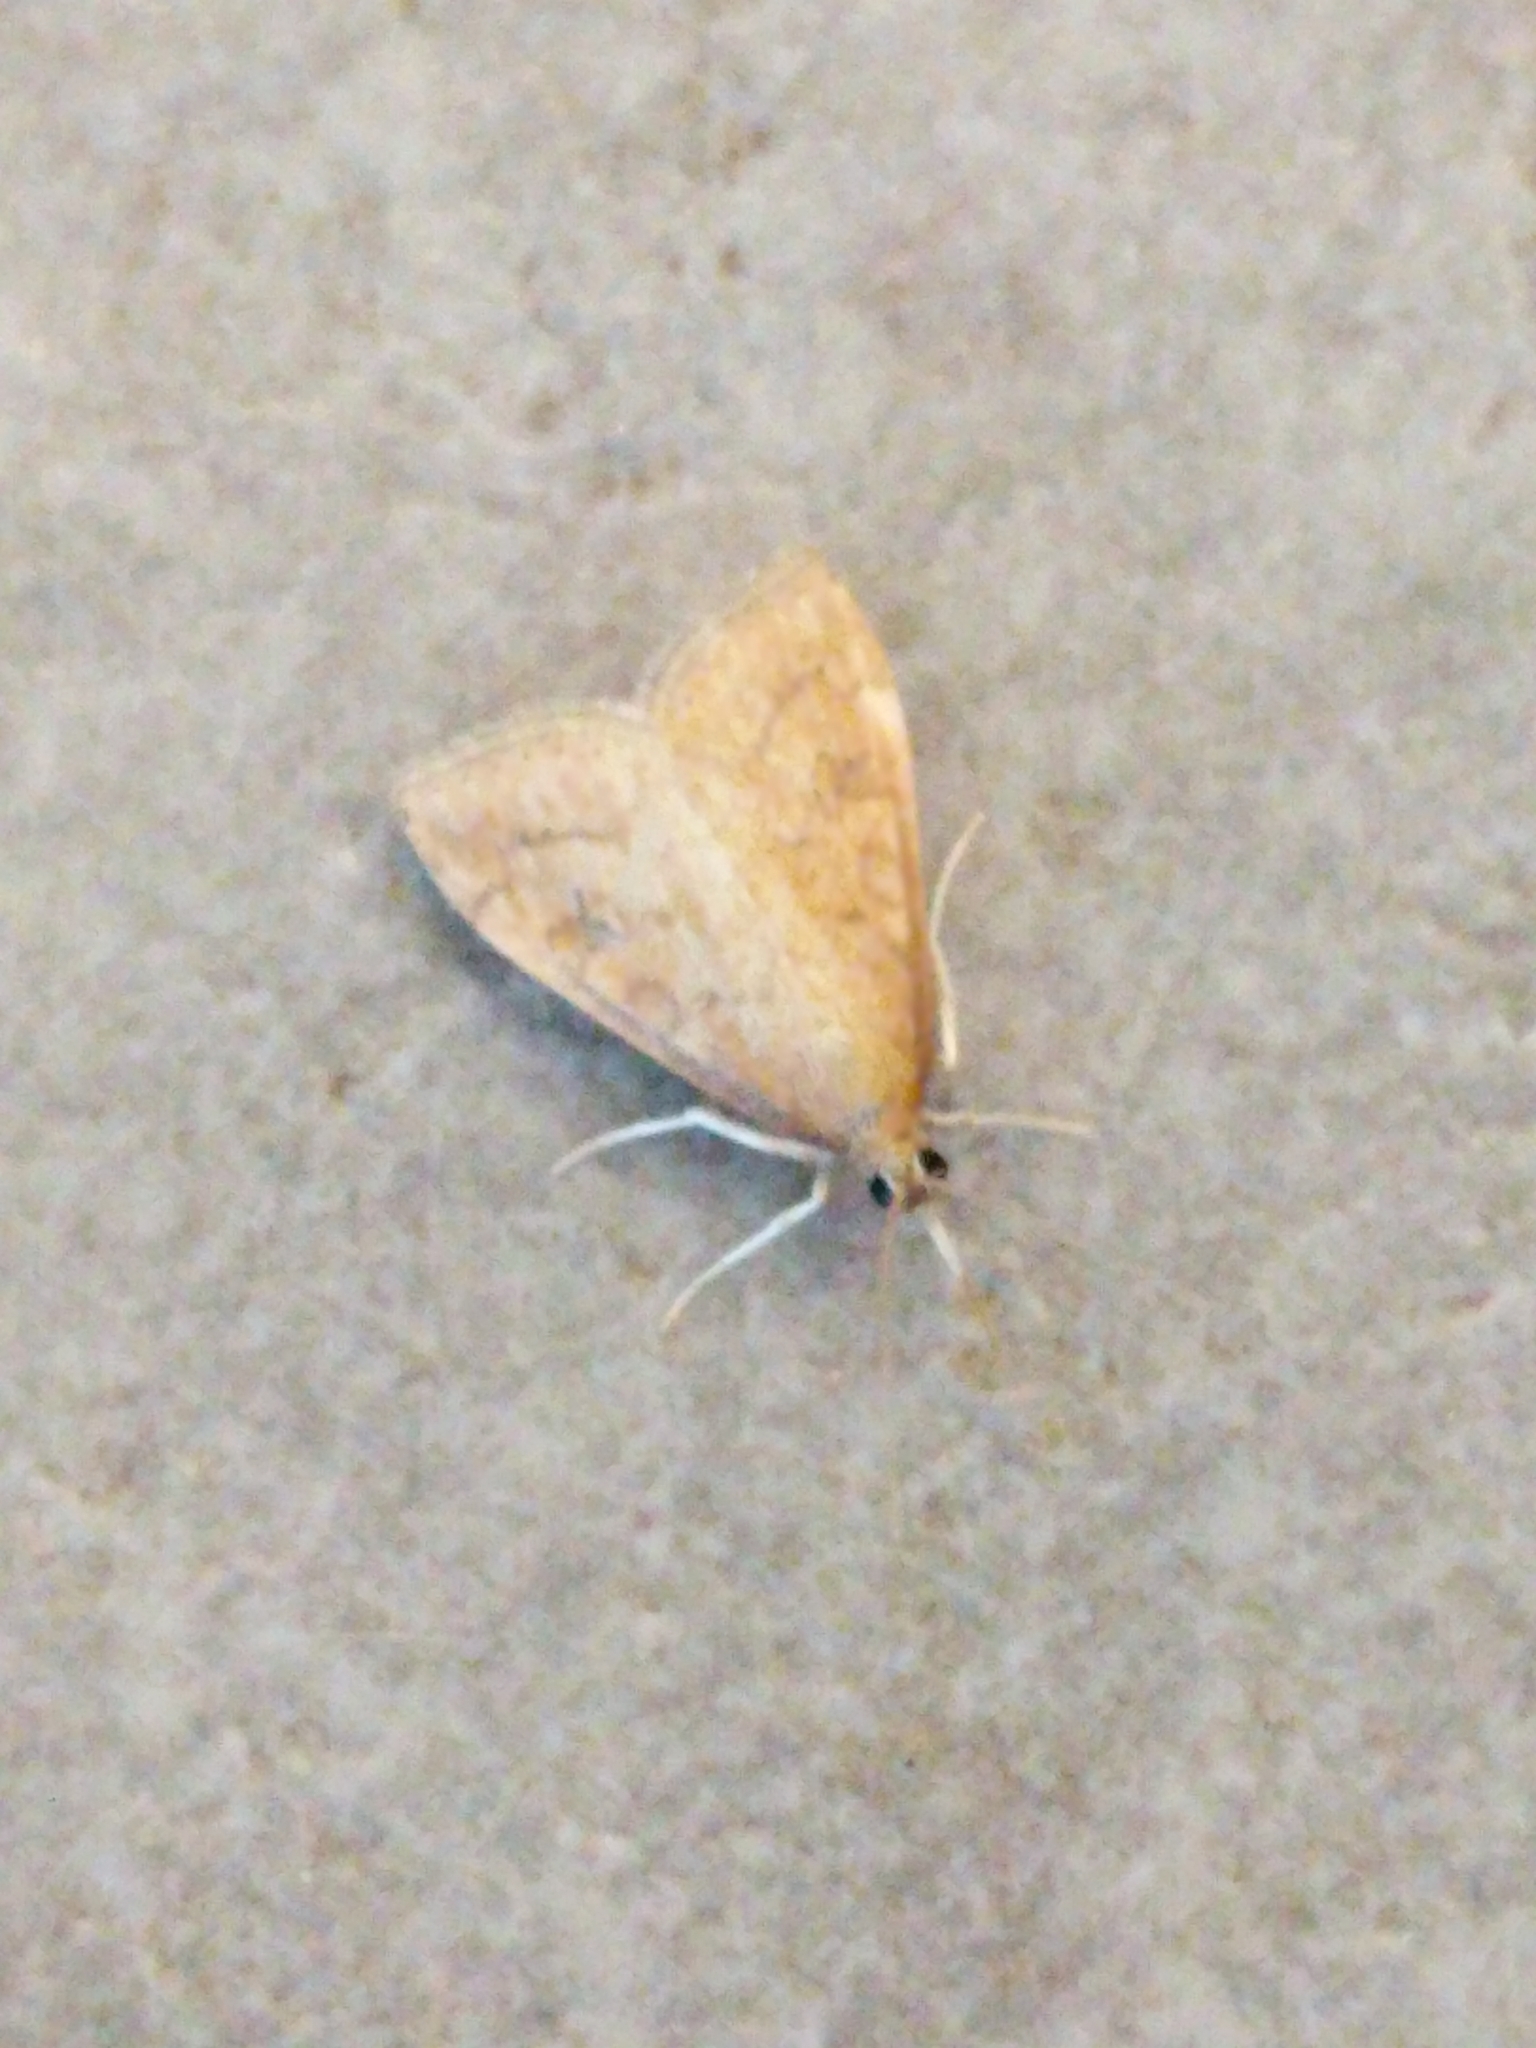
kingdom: Animalia
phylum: Arthropoda
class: Insecta
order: Lepidoptera
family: Crambidae
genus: Udea
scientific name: Udea rubigalis
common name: Celery leaftier moth
